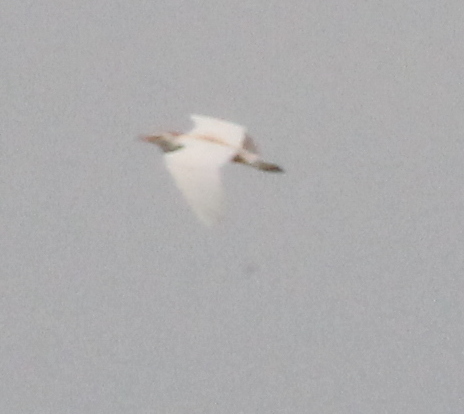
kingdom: Animalia
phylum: Chordata
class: Aves
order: Pelecaniformes
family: Ardeidae
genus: Bubulcus
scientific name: Bubulcus ibis
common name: Cattle egret
